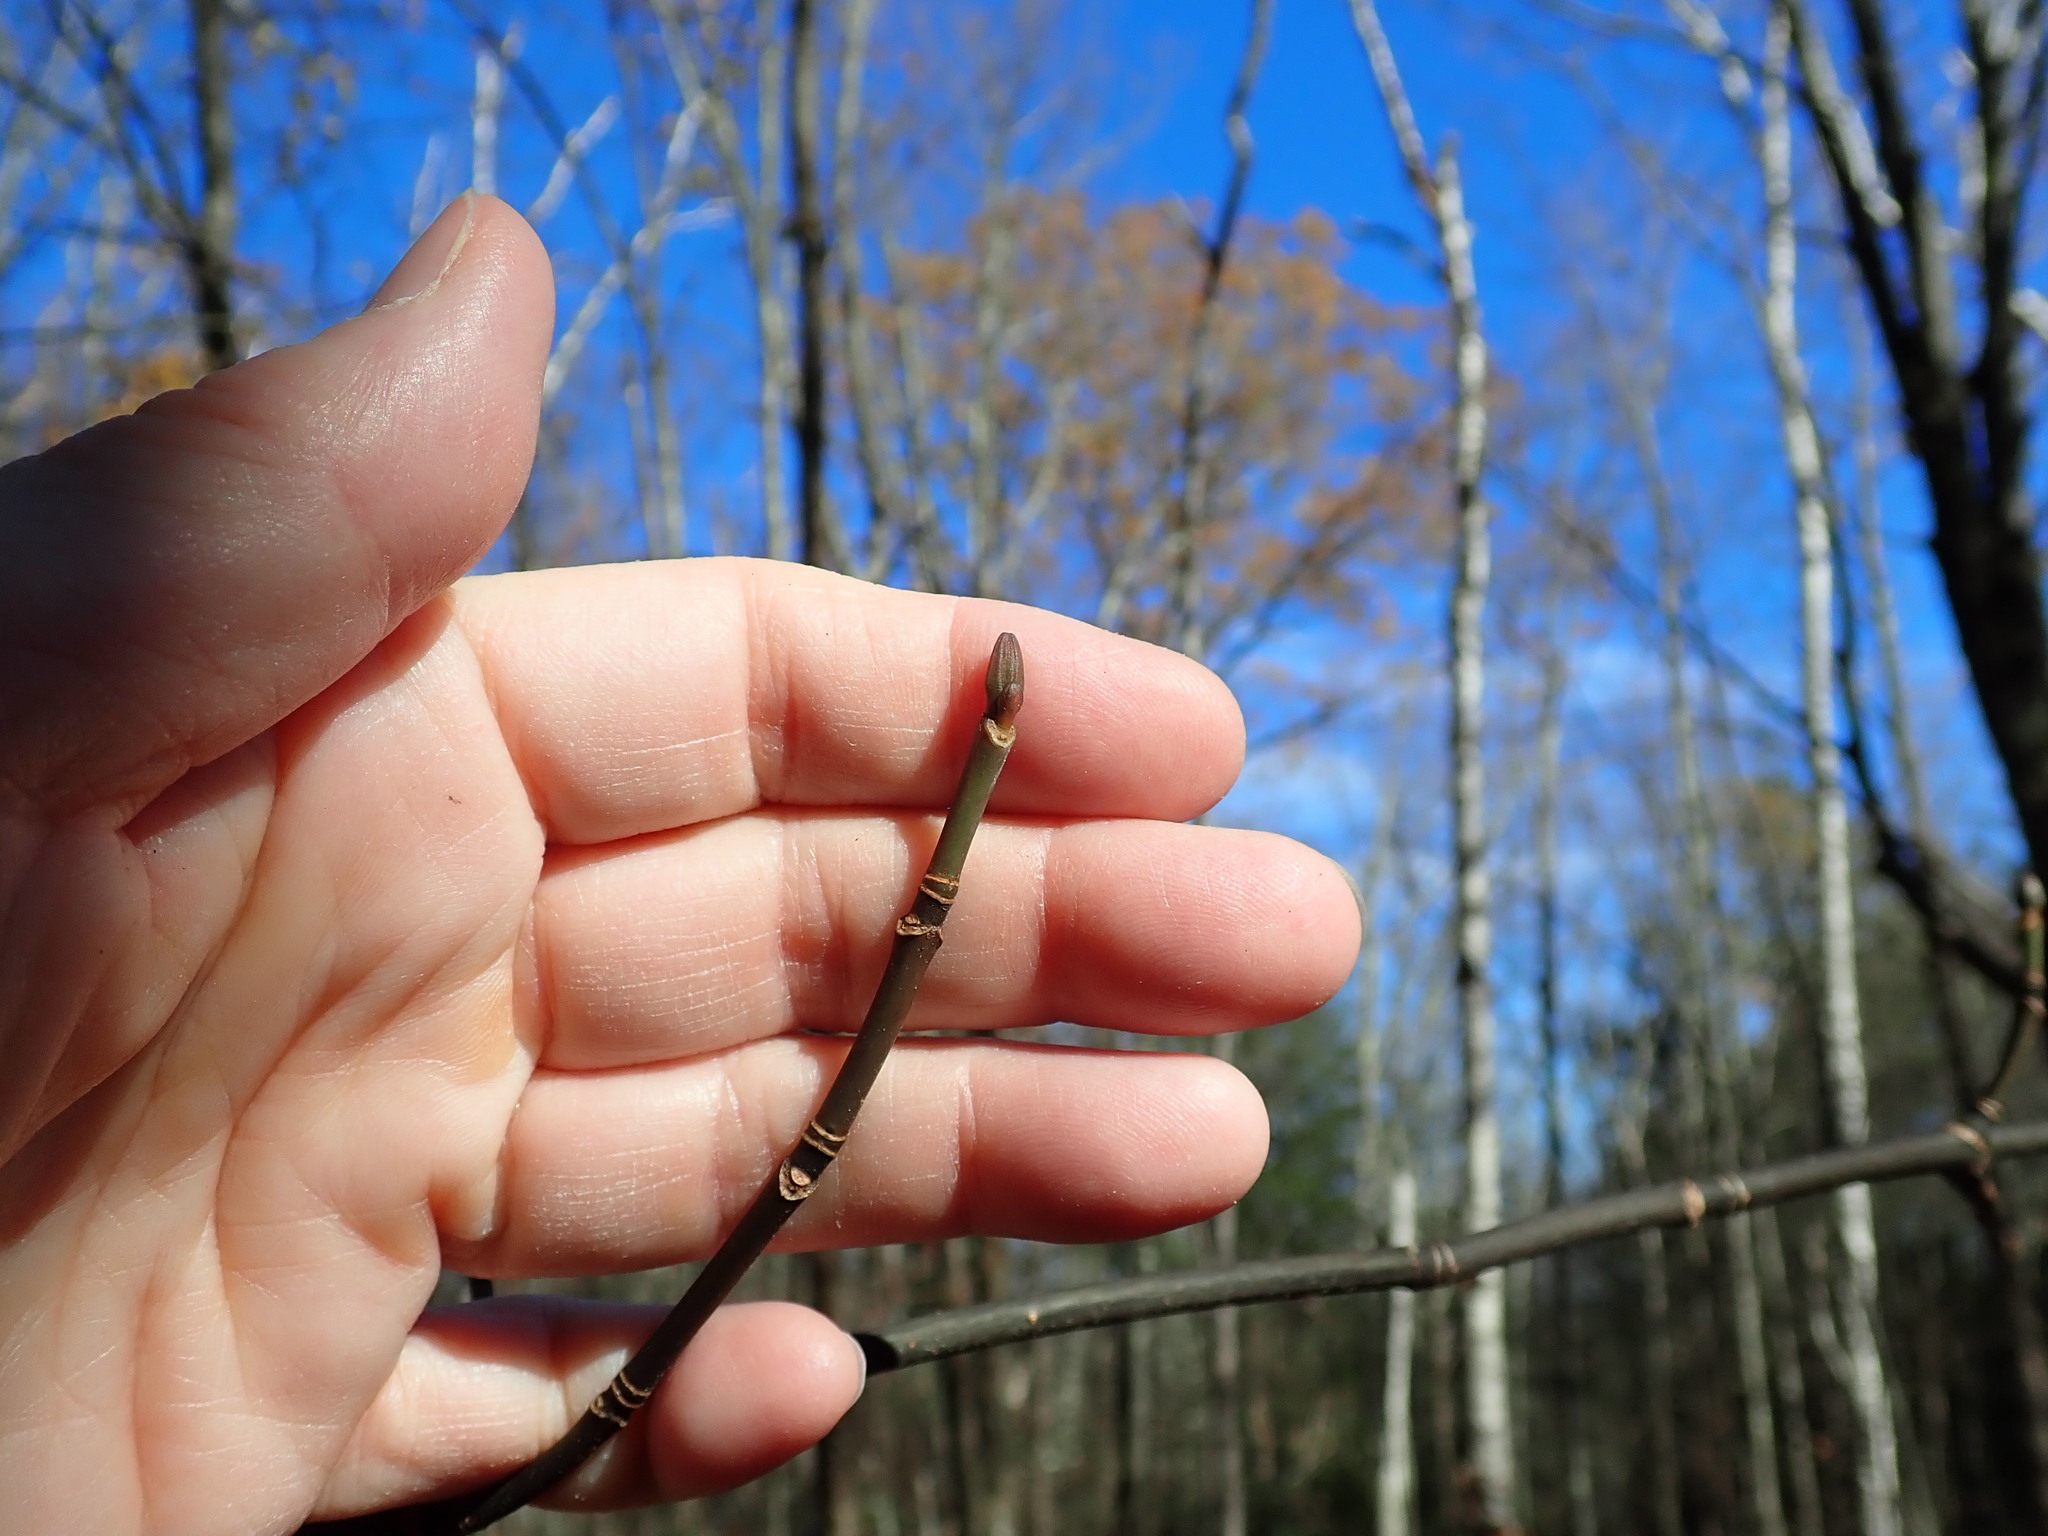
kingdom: Plantae
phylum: Tracheophyta
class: Magnoliopsida
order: Sapindales
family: Sapindaceae
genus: Acer
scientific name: Acer pensylvanicum
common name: Moosewood
